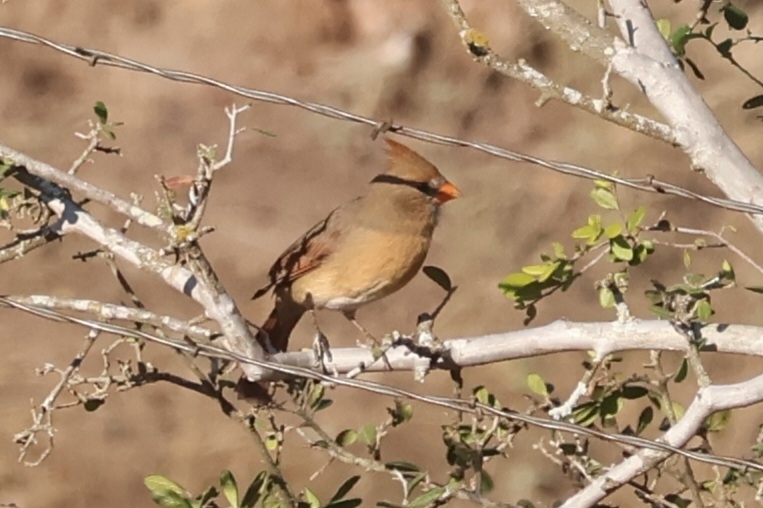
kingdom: Animalia
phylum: Chordata
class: Aves
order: Passeriformes
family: Cardinalidae
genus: Cardinalis
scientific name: Cardinalis cardinalis
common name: Northern cardinal
